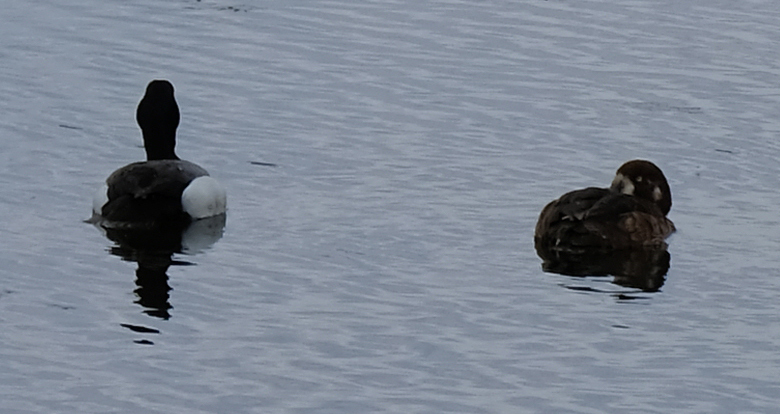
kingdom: Animalia
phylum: Chordata
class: Aves
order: Anseriformes
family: Anatidae
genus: Aythya
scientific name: Aythya marila
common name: Greater scaup
